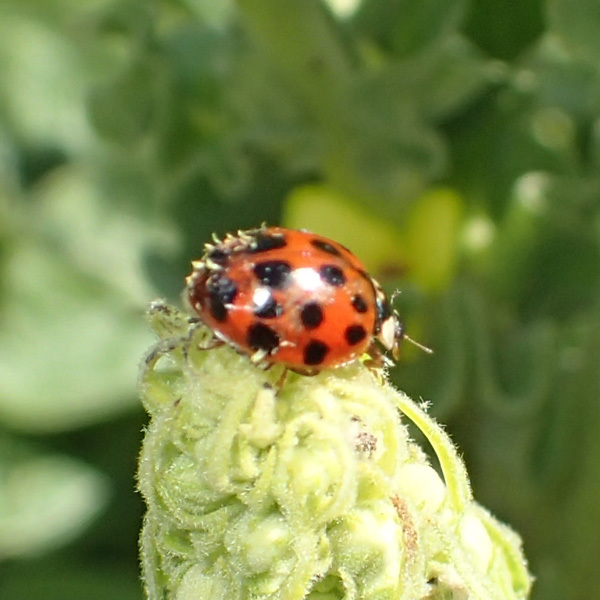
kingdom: Animalia
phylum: Arthropoda
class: Insecta
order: Coleoptera
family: Coccinellidae
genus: Harmonia
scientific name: Harmonia axyridis
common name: Harlequin ladybird
